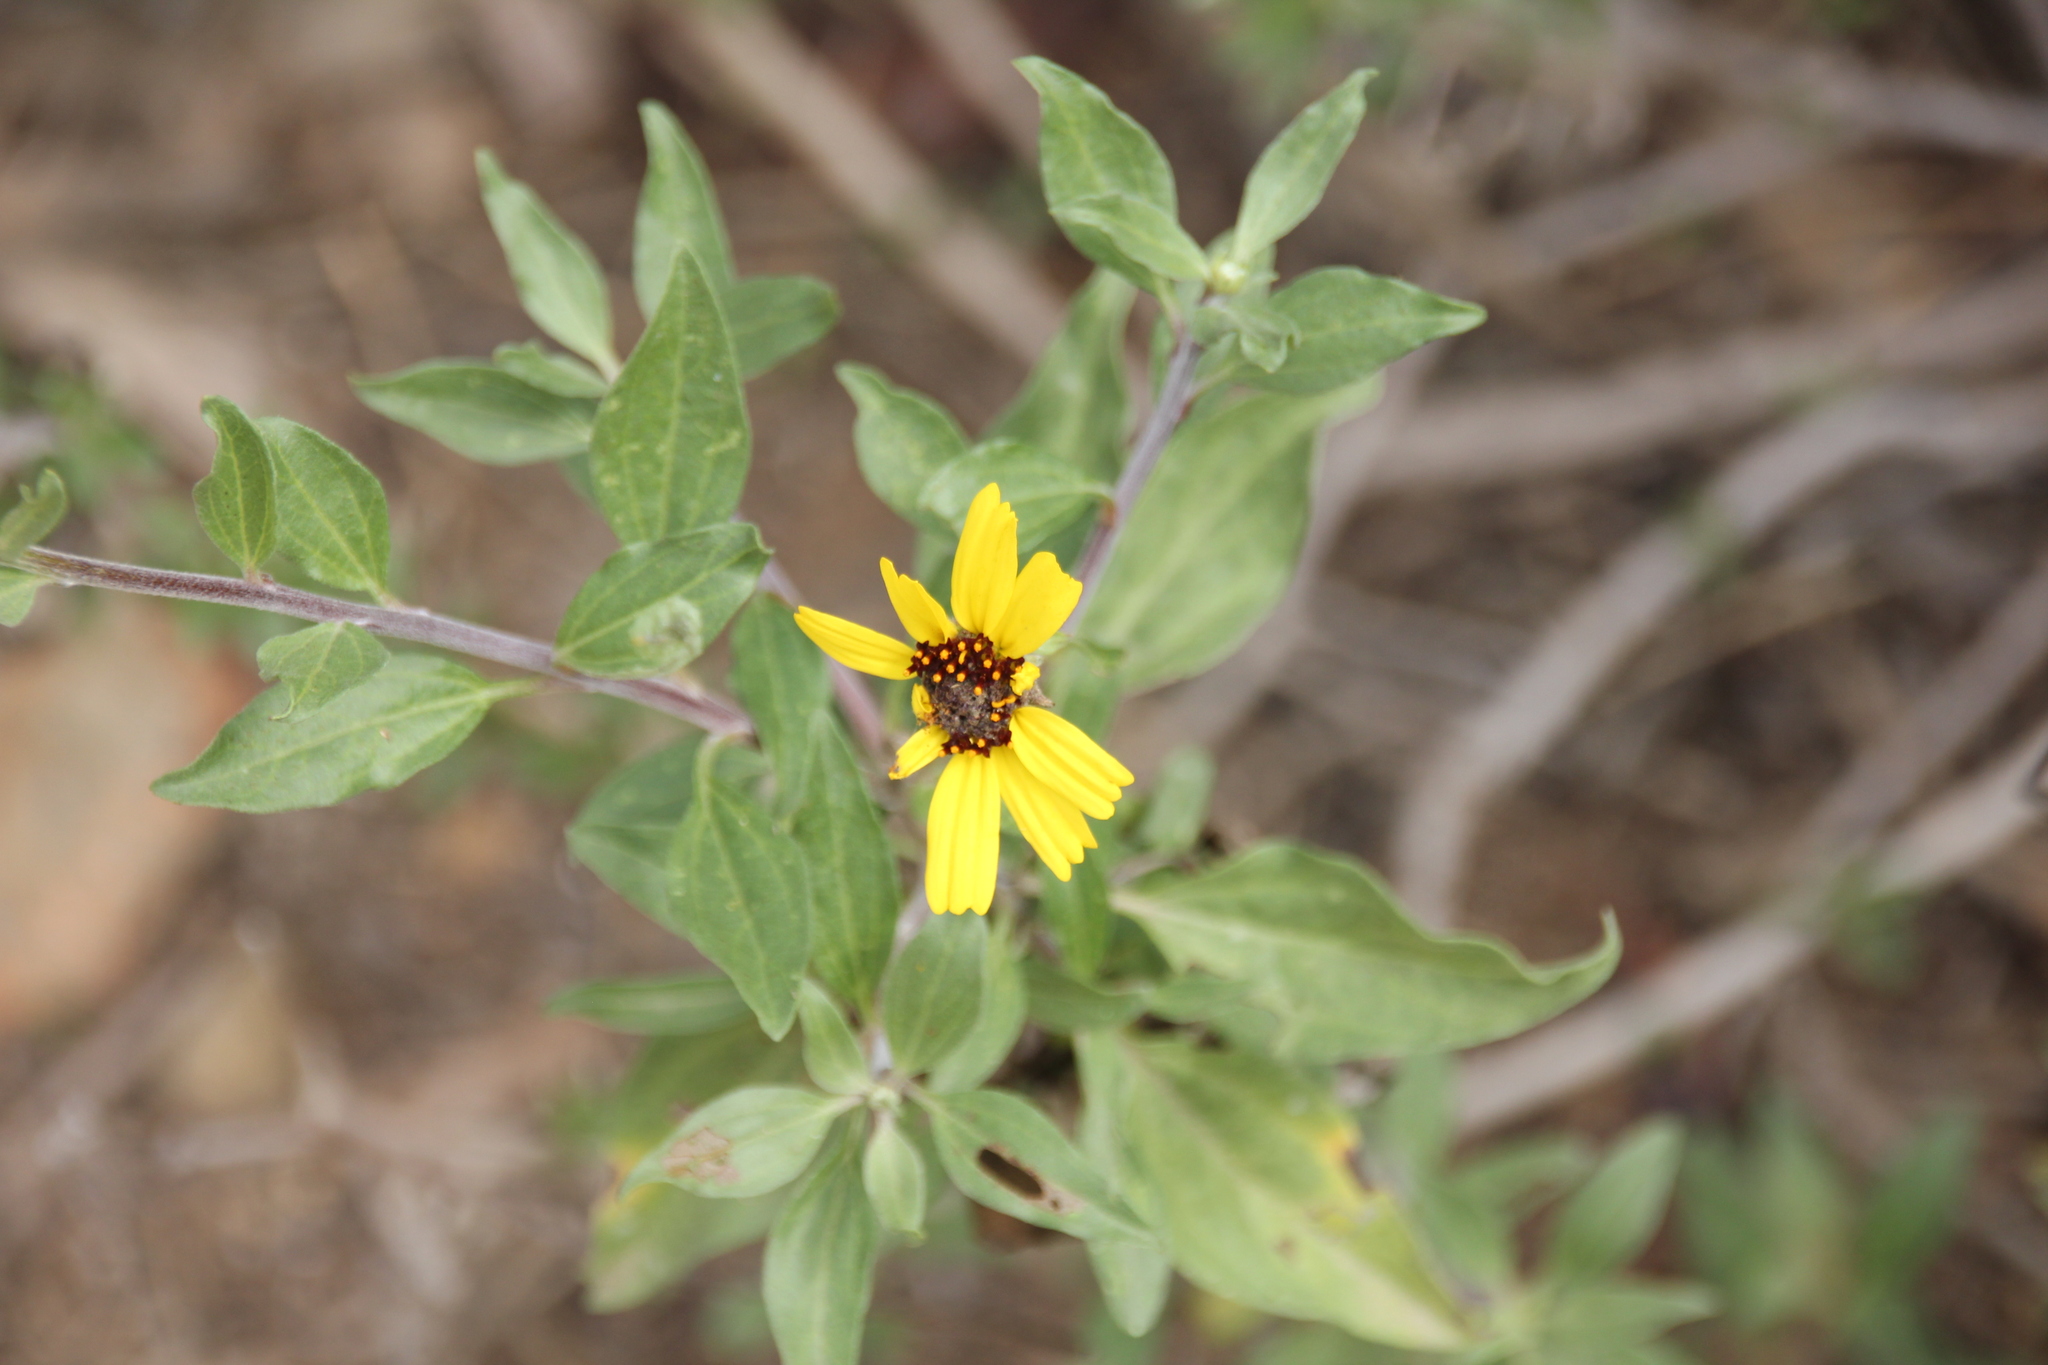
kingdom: Plantae
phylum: Tracheophyta
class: Magnoliopsida
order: Asterales
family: Asteraceae
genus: Encelia
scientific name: Encelia californica
